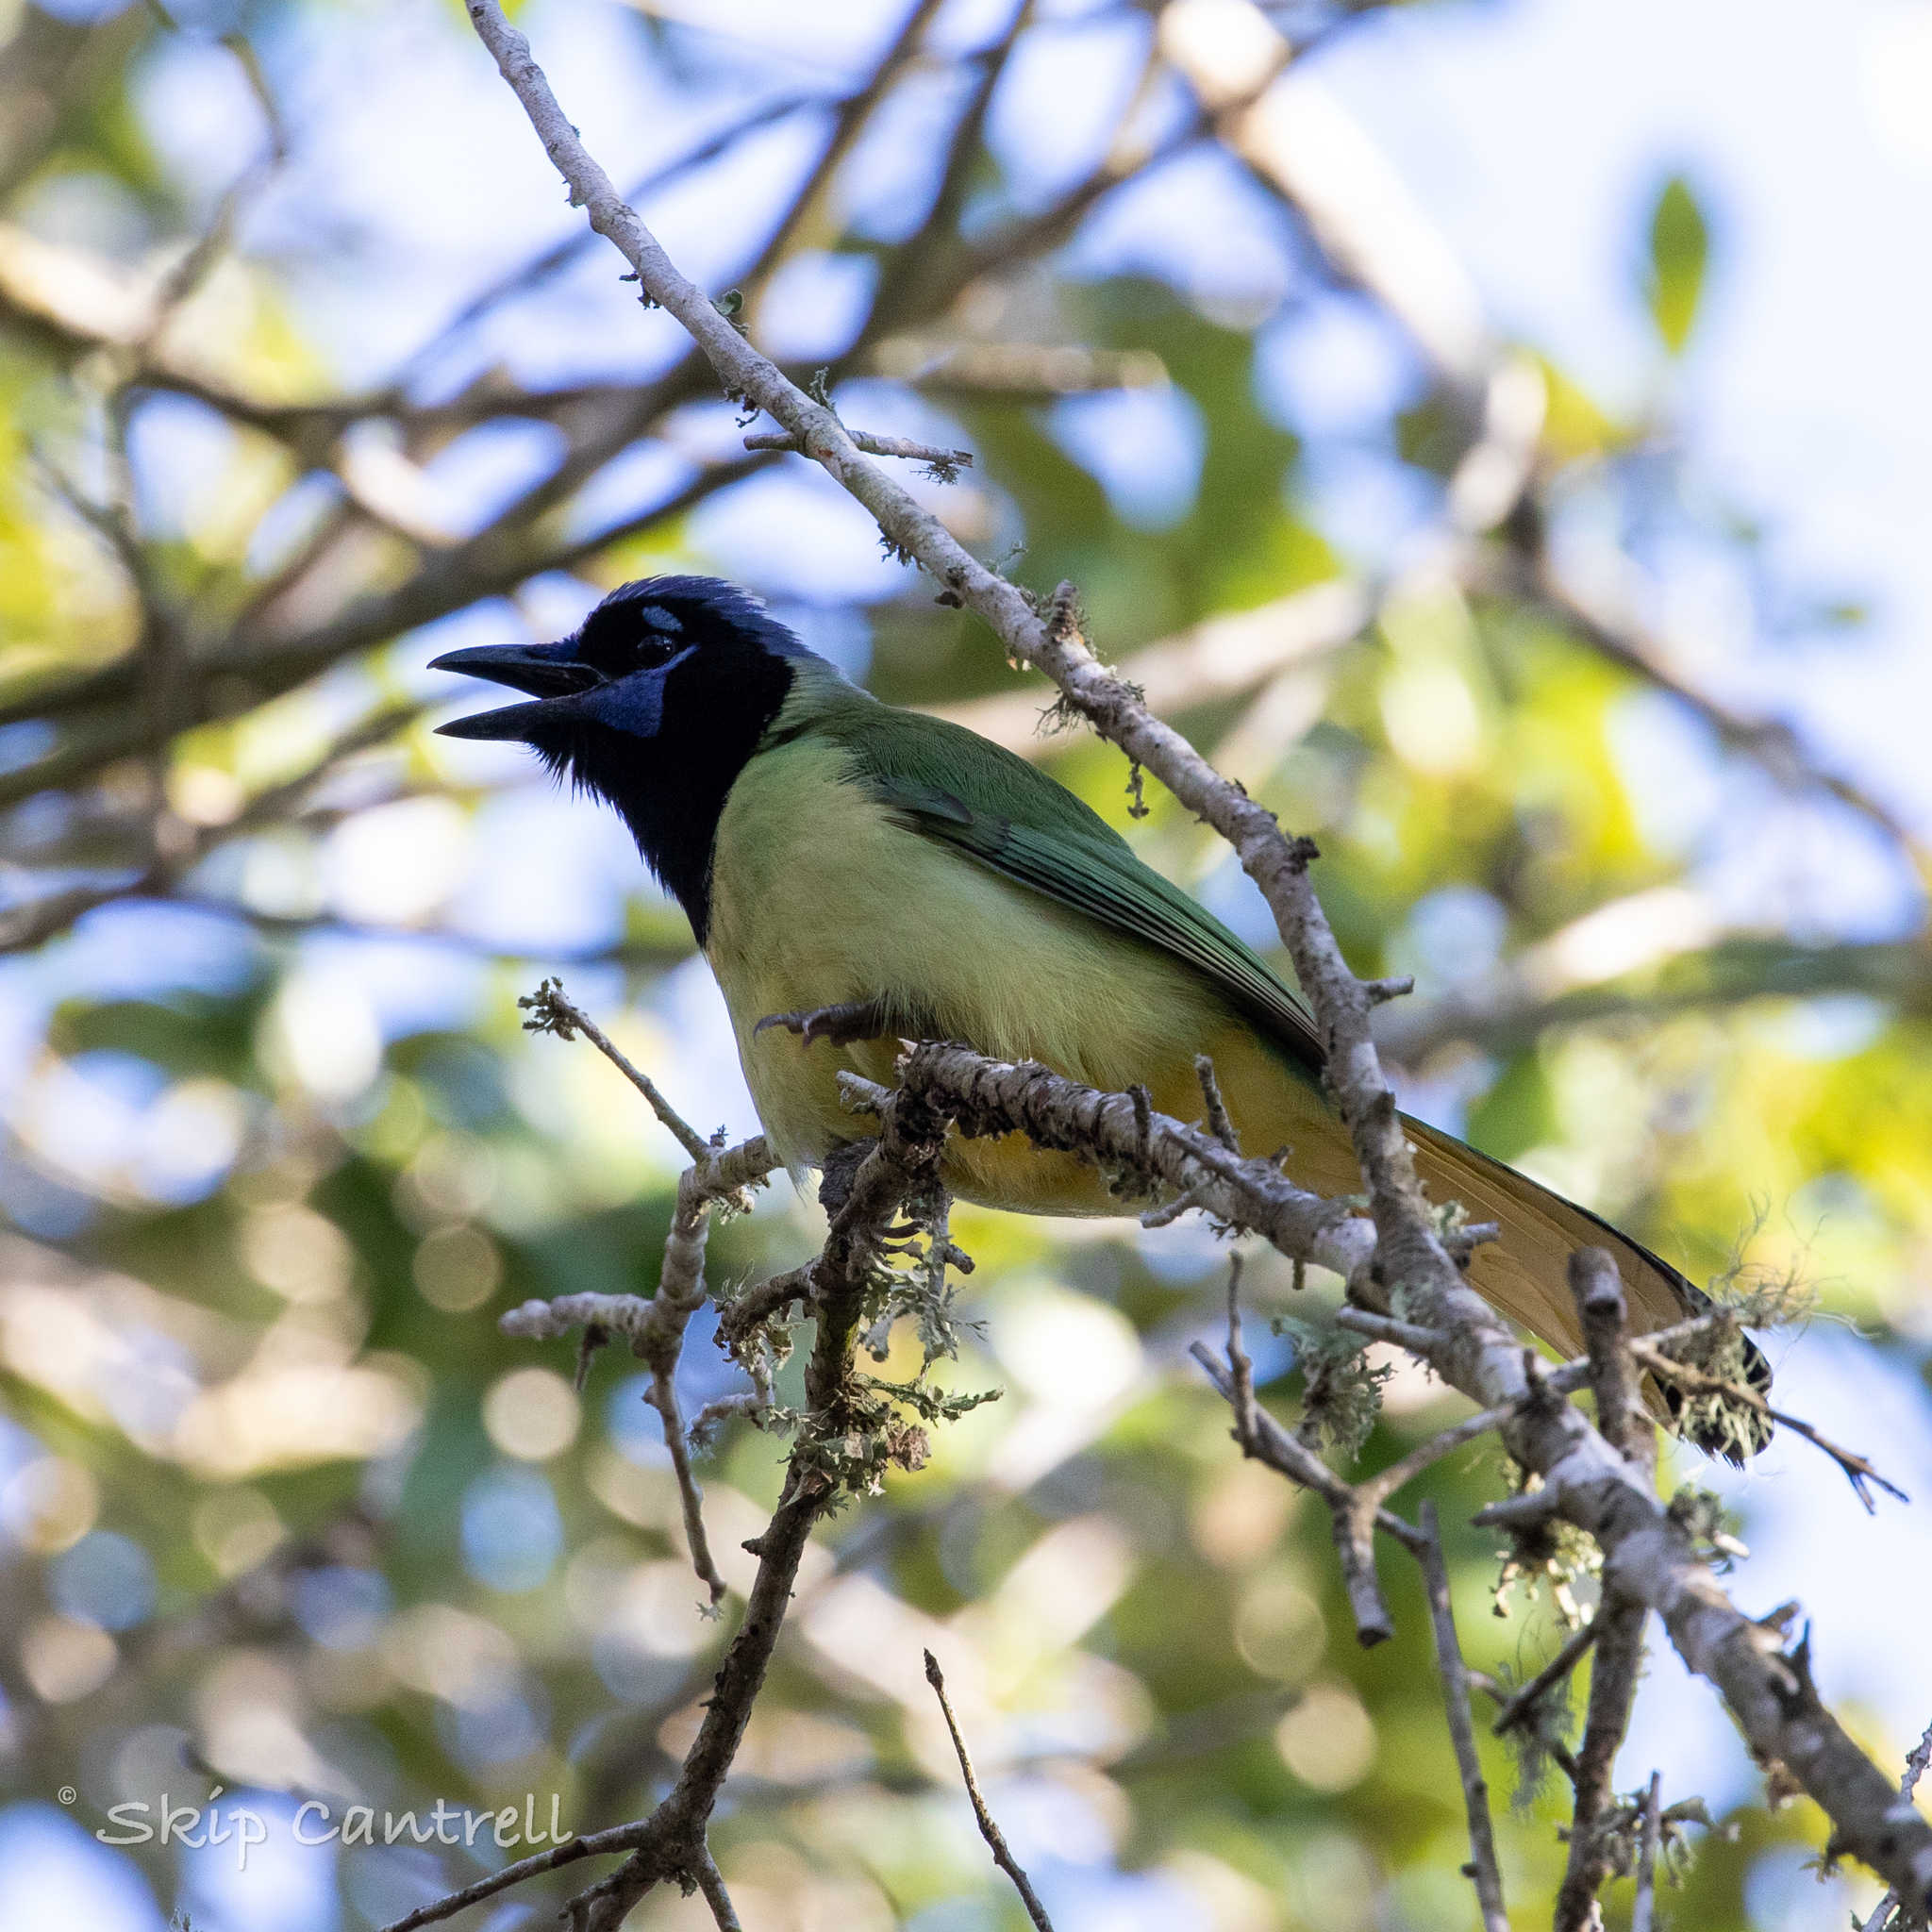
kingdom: Animalia
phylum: Chordata
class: Aves
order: Passeriformes
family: Corvidae
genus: Cyanocorax
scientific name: Cyanocorax yncas
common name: Green jay
